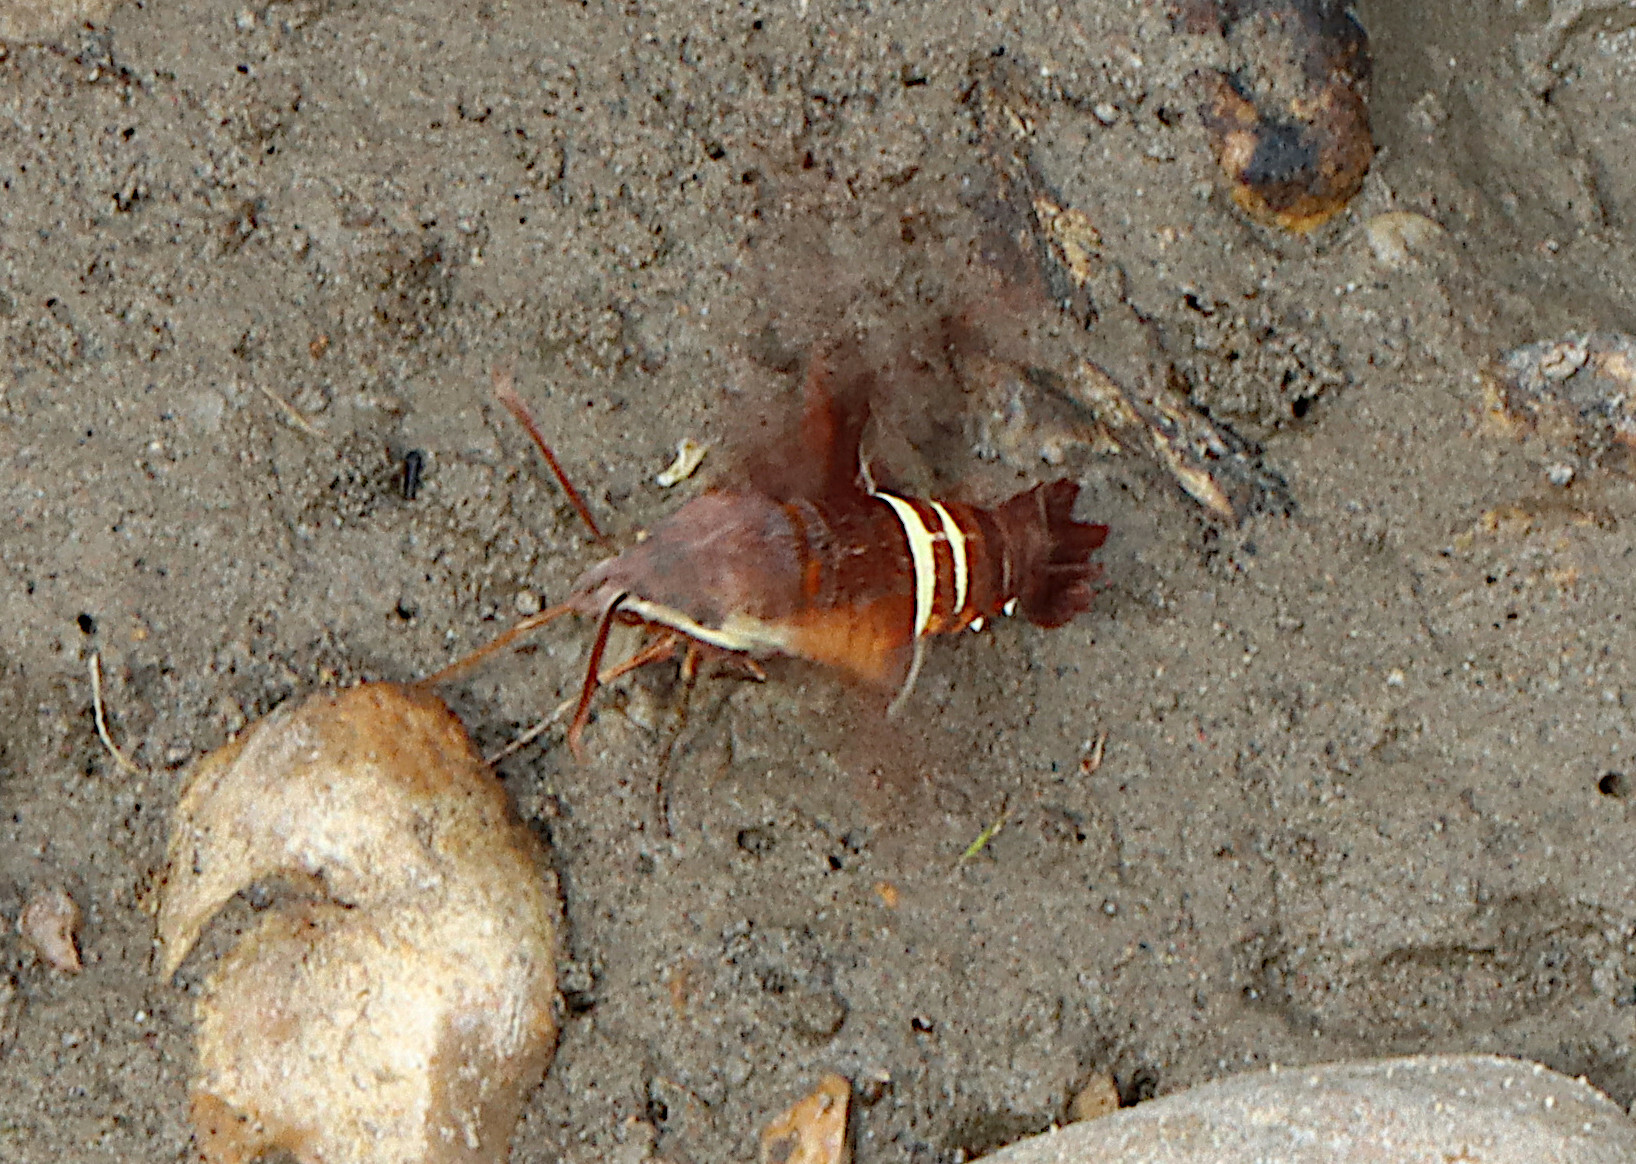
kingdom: Animalia
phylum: Arthropoda
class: Insecta
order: Lepidoptera
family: Sphingidae
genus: Amphion
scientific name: Amphion floridensis
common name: Nessus sphinx
